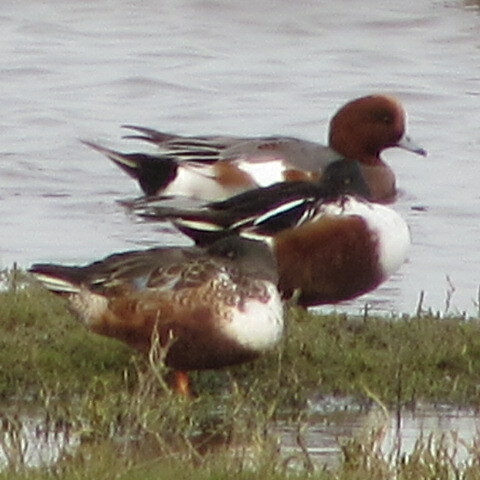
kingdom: Animalia
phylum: Chordata
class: Aves
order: Anseriformes
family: Anatidae
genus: Spatula
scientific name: Spatula clypeata
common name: Northern shoveler
